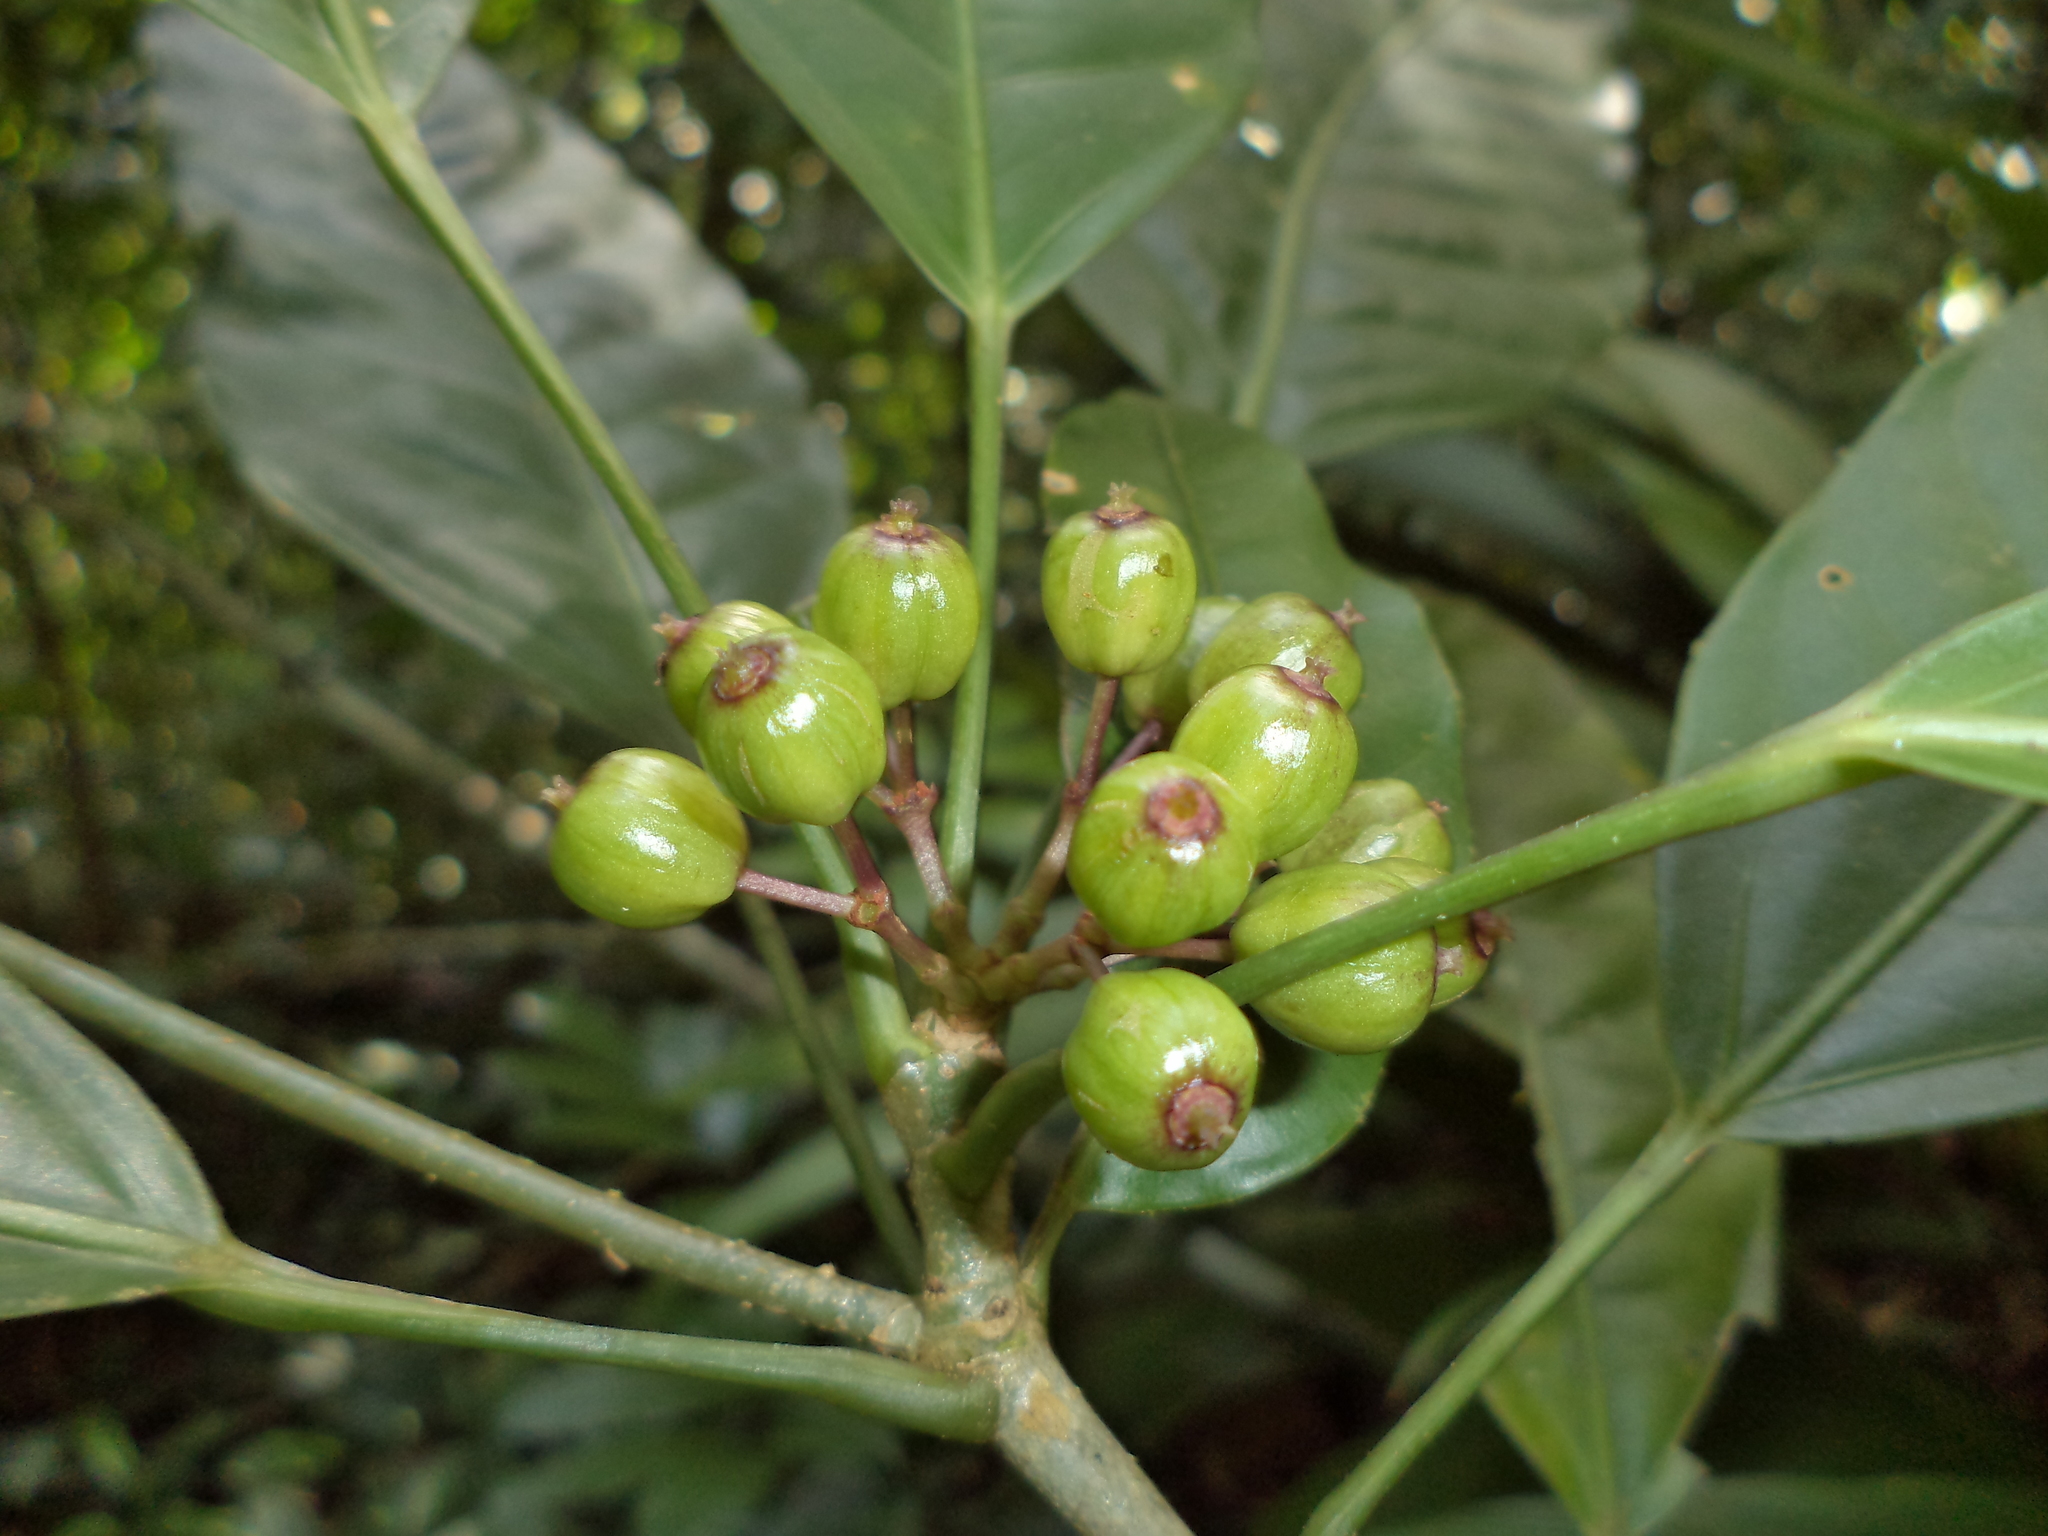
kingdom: Plantae
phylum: Tracheophyta
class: Magnoliopsida
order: Apiales
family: Araliaceae
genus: Dendropanax
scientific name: Dendropanax ravenii
